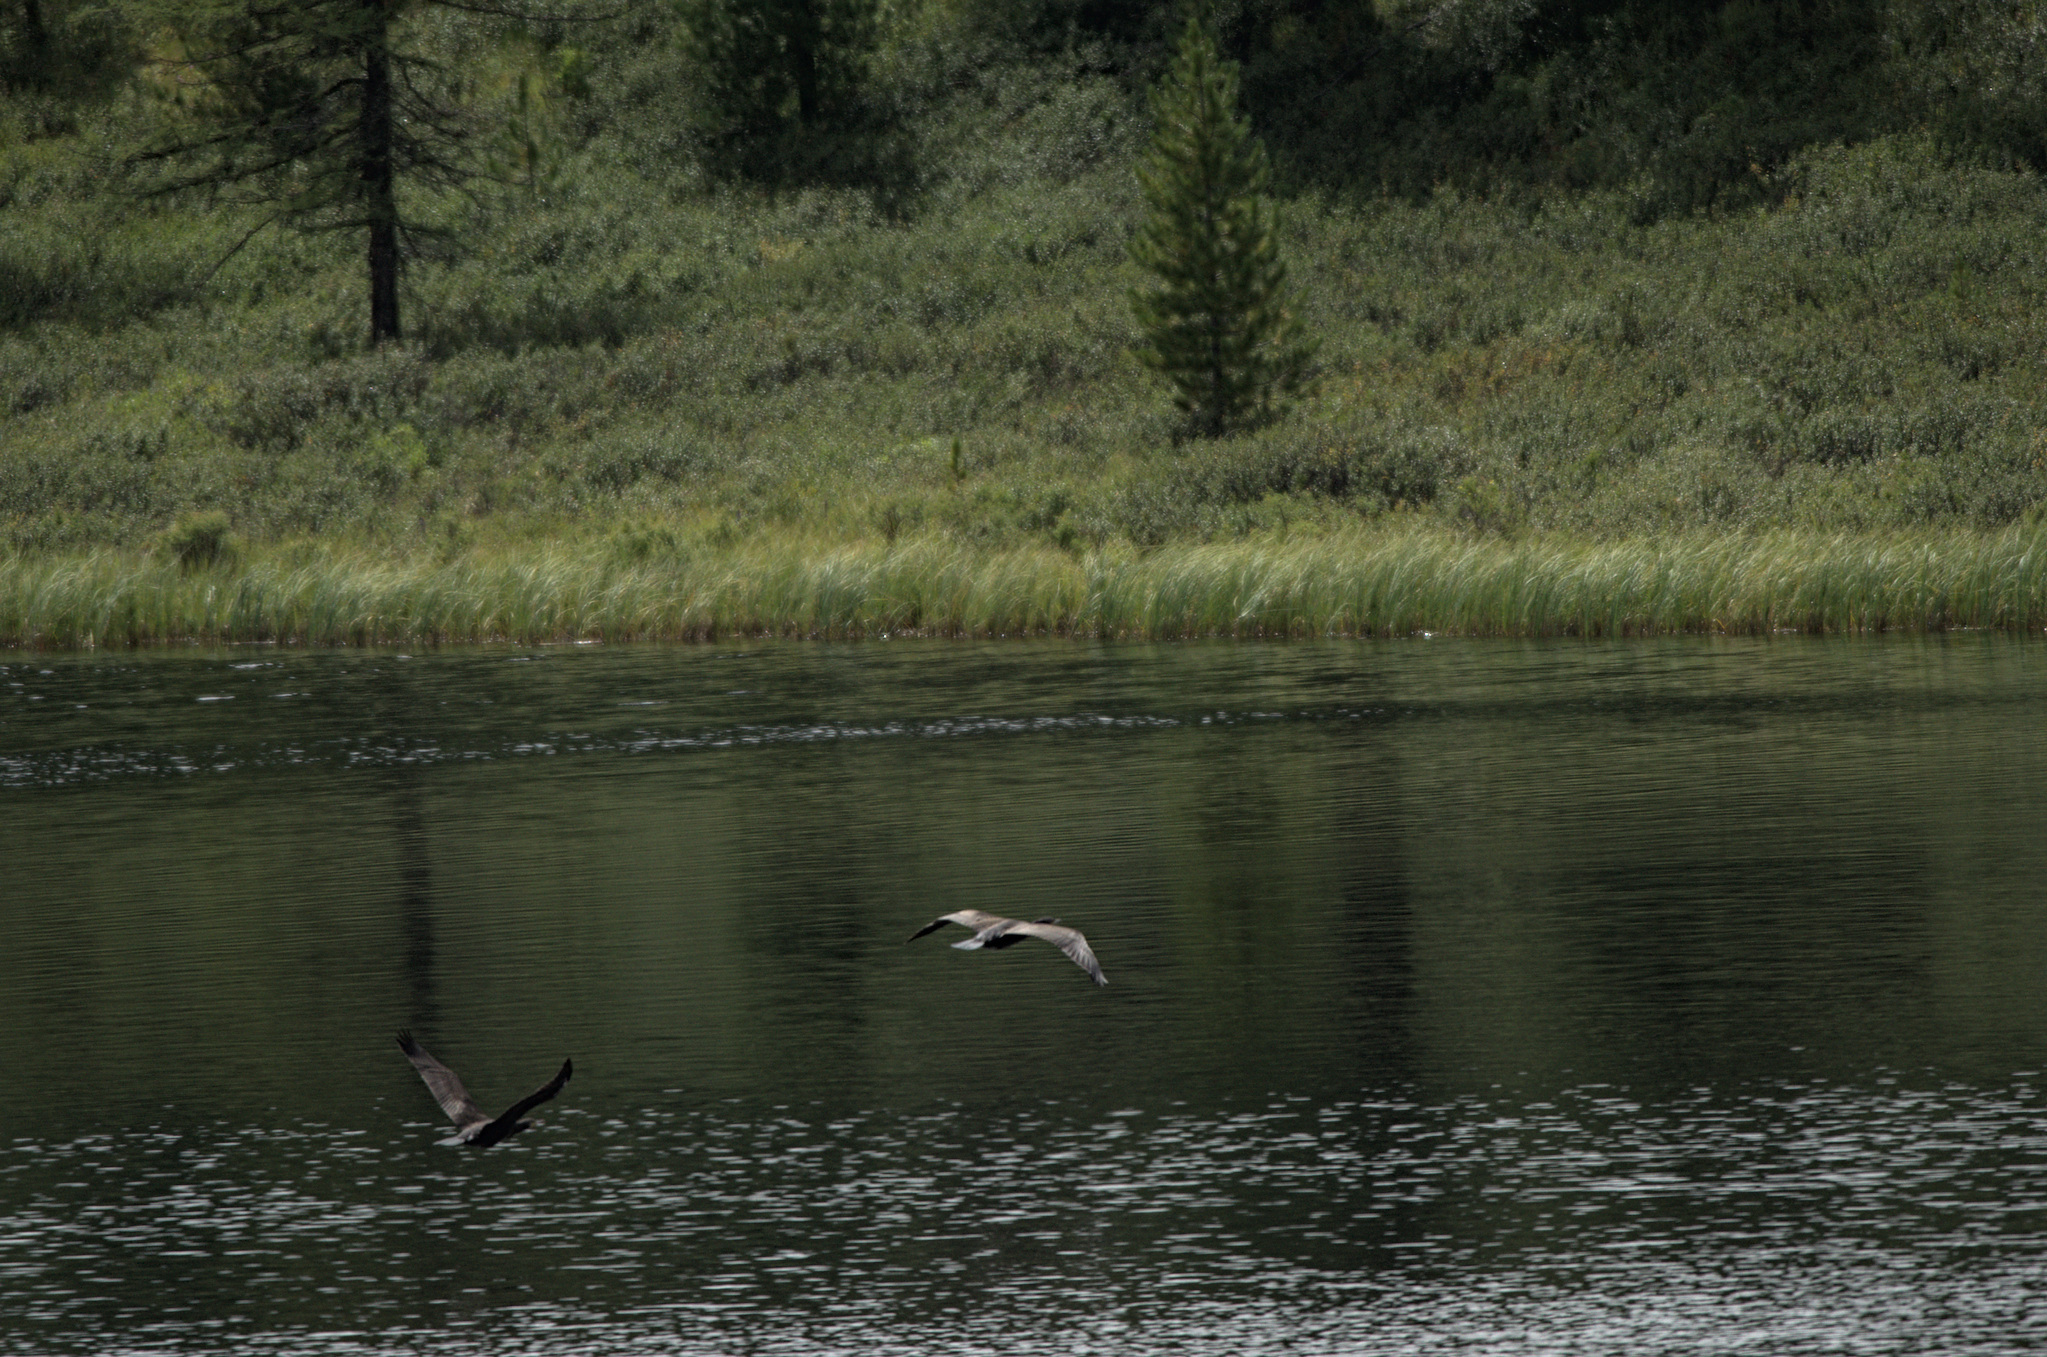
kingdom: Animalia
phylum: Chordata
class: Aves
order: Suliformes
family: Phalacrocoracidae
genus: Phalacrocorax
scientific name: Phalacrocorax carbo
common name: Great cormorant
